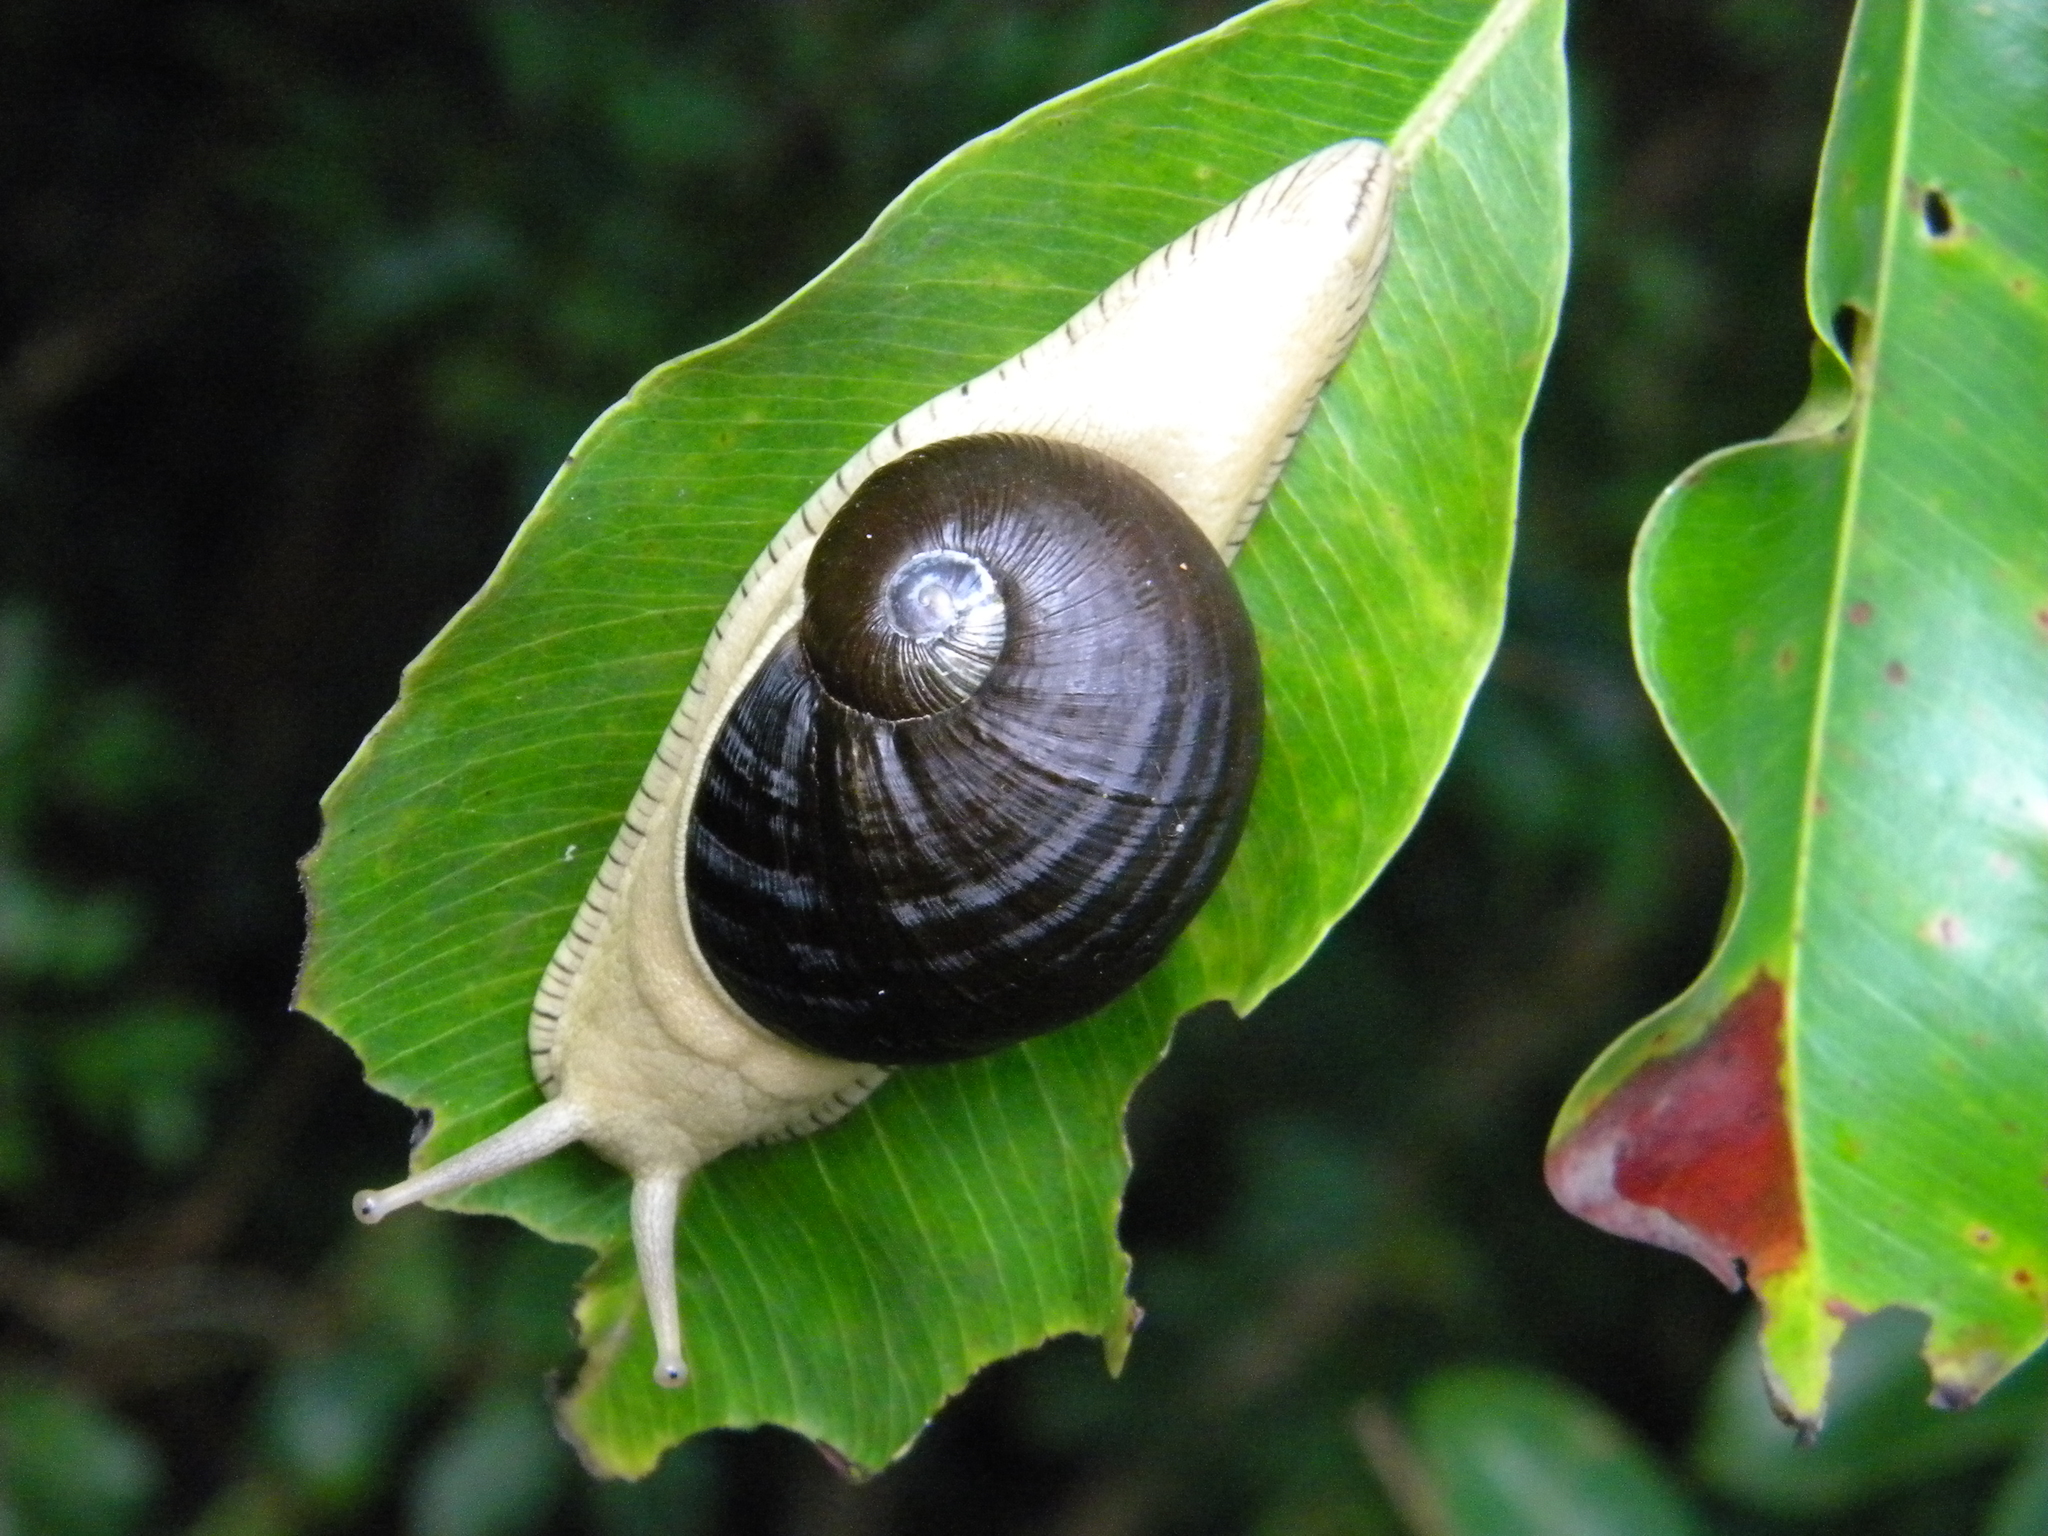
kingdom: Animalia
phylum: Mollusca
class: Gastropoda
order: Stylommatophora
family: Ariophantidae
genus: Indrella
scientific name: Indrella ampulla
